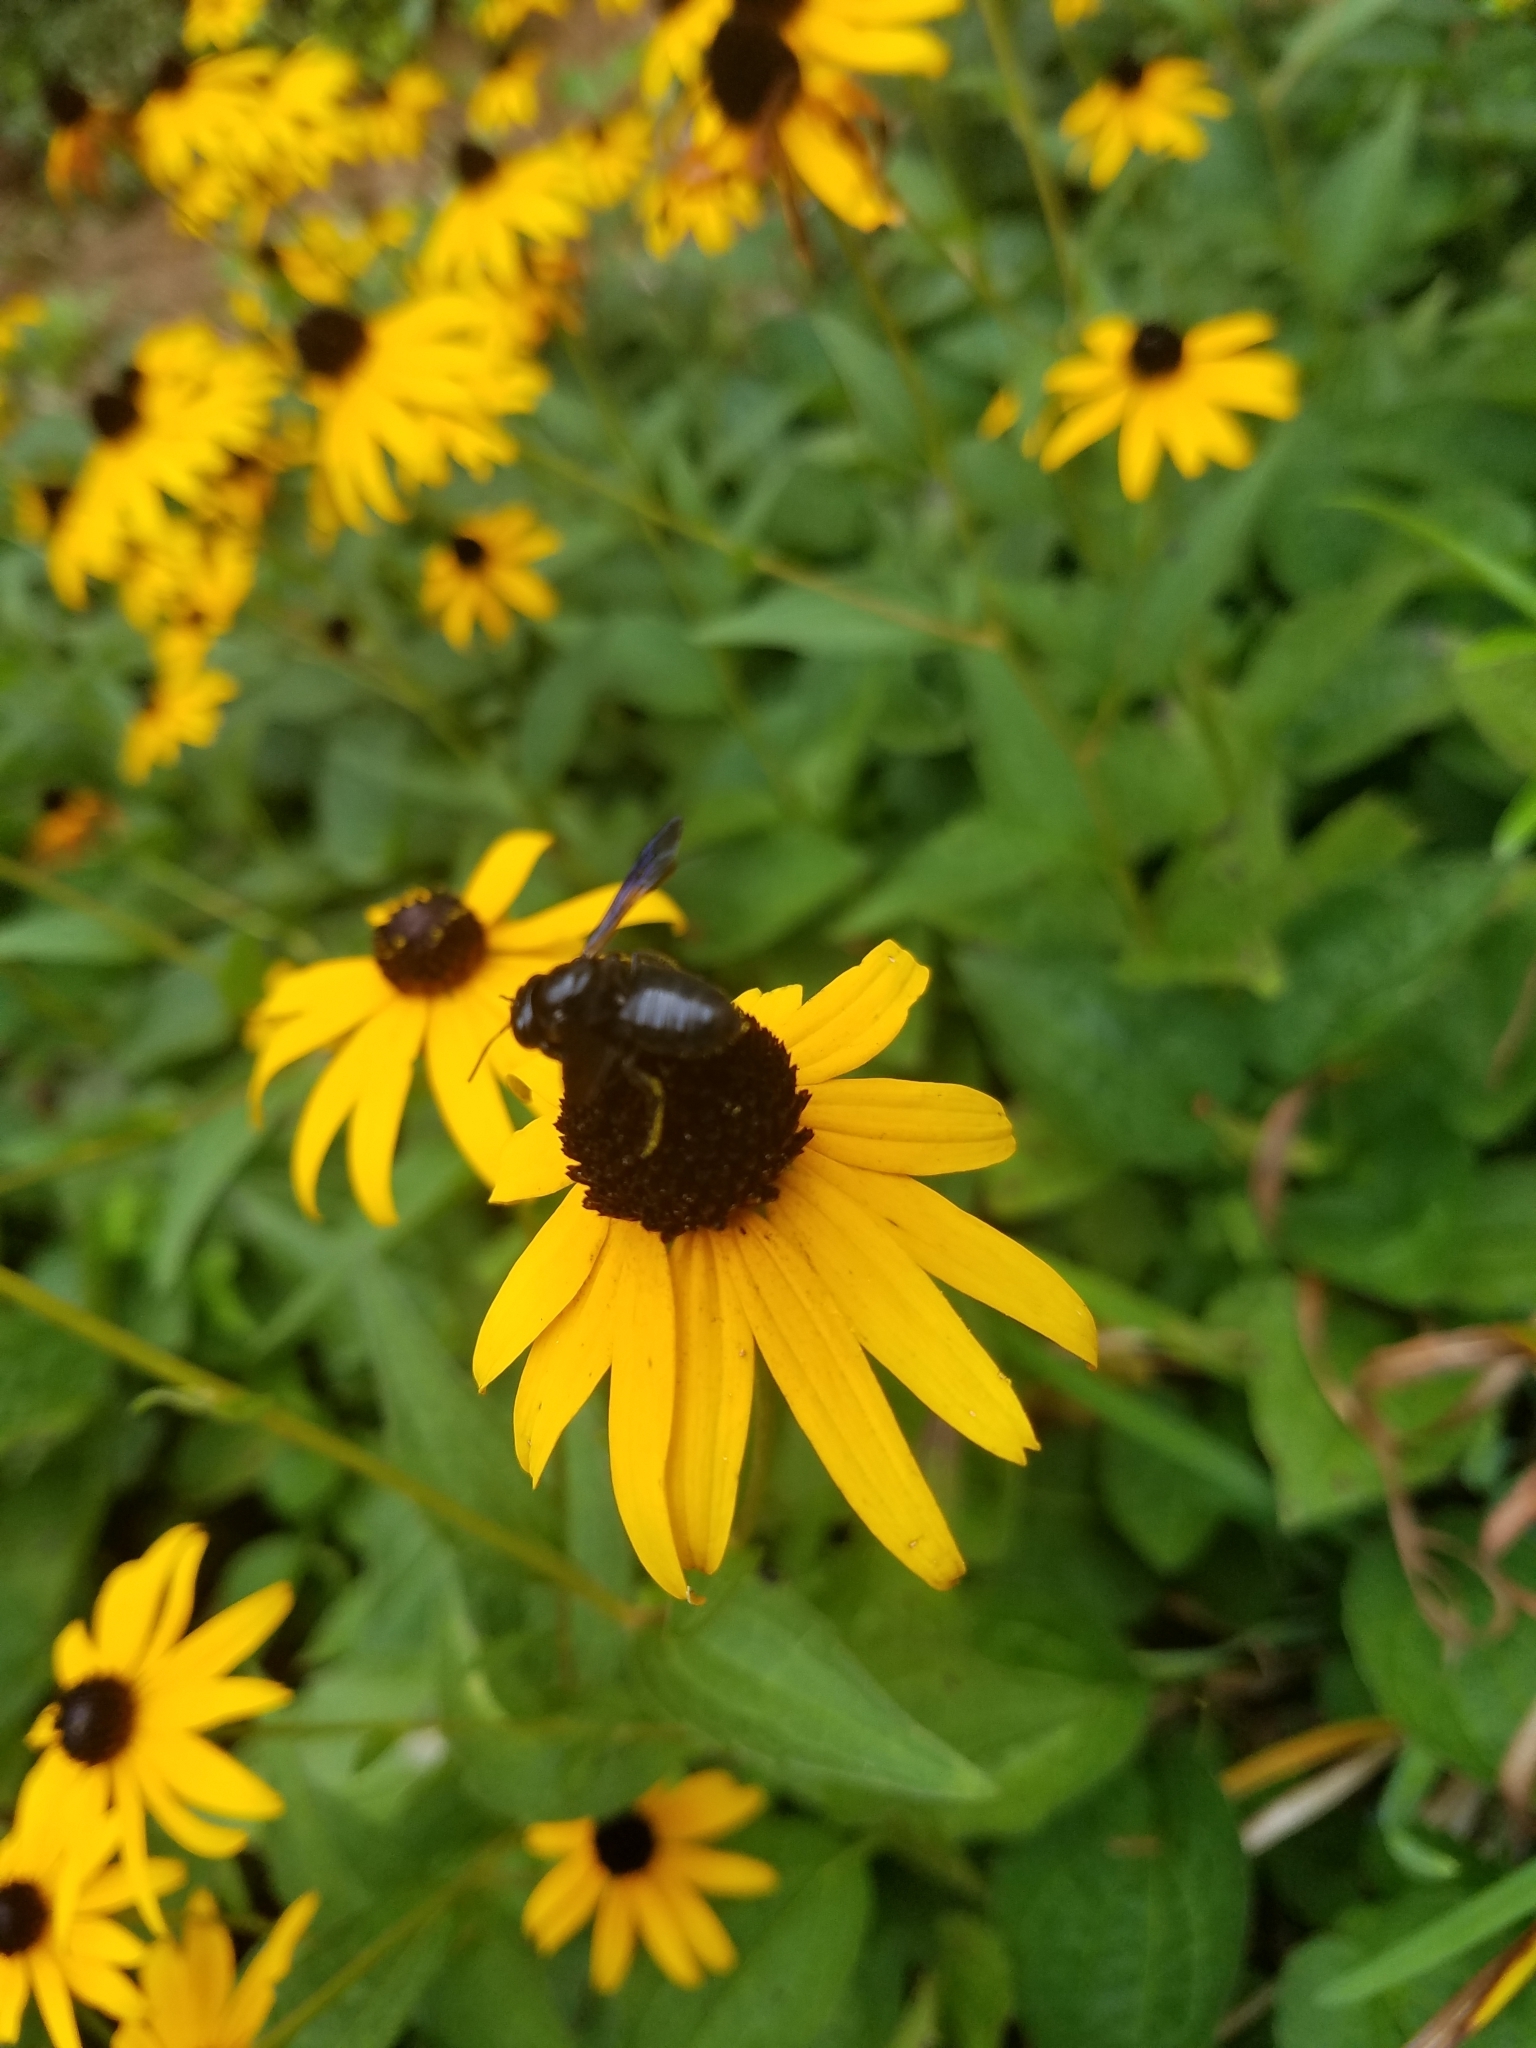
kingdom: Animalia
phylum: Arthropoda
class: Insecta
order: Hymenoptera
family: Megachilidae
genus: Megachile
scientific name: Megachile xylocopoides
